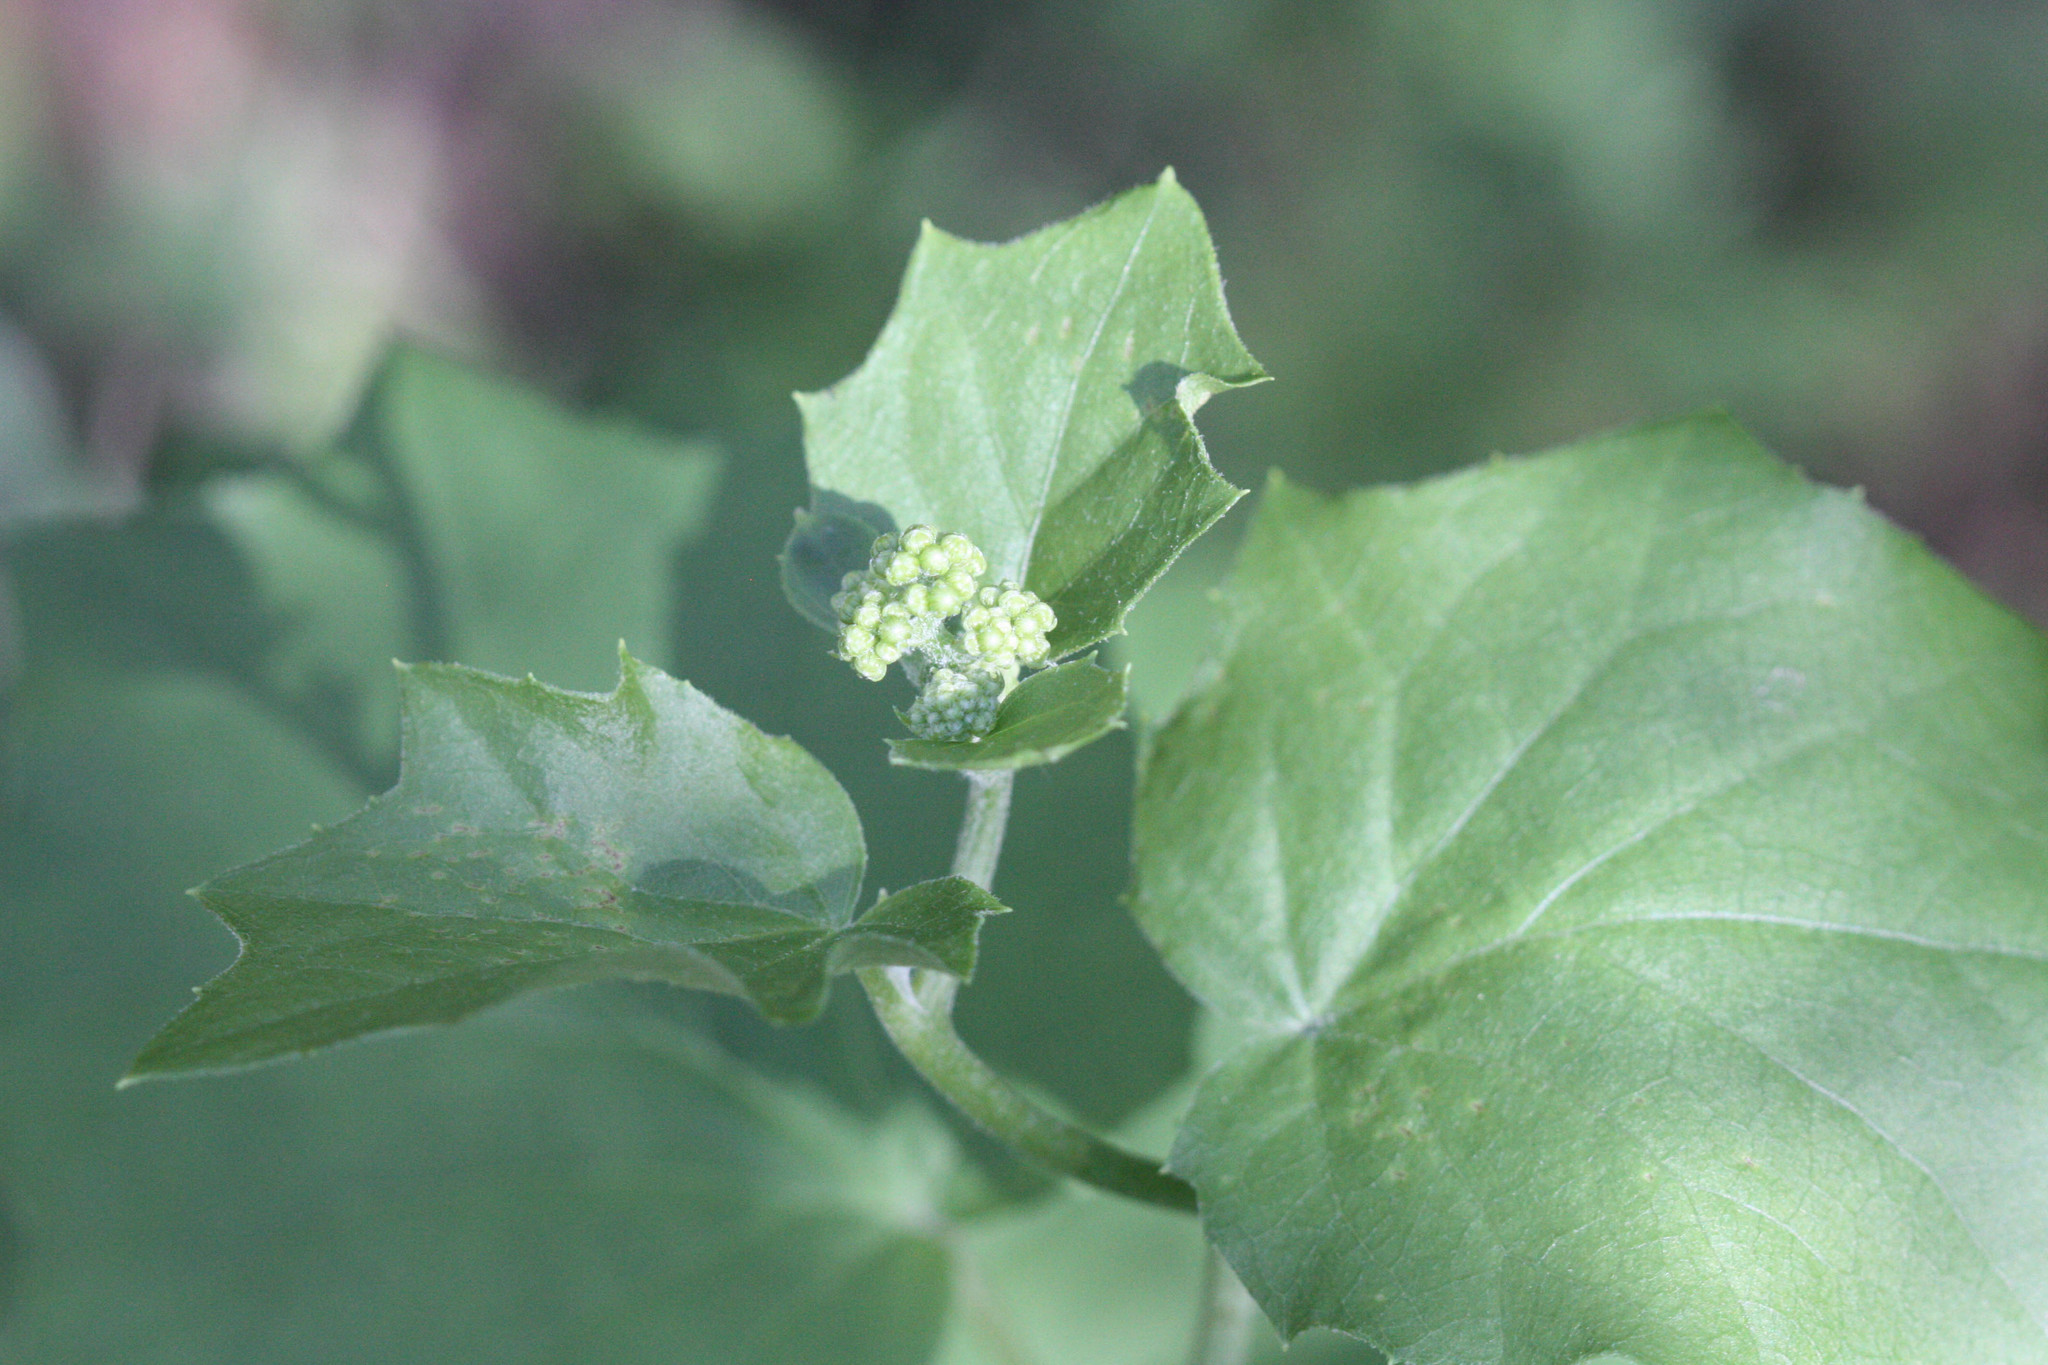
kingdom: Plantae
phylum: Tracheophyta
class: Magnoliopsida
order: Asterales
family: Asteraceae
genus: Roldana
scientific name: Roldana hartwegii
